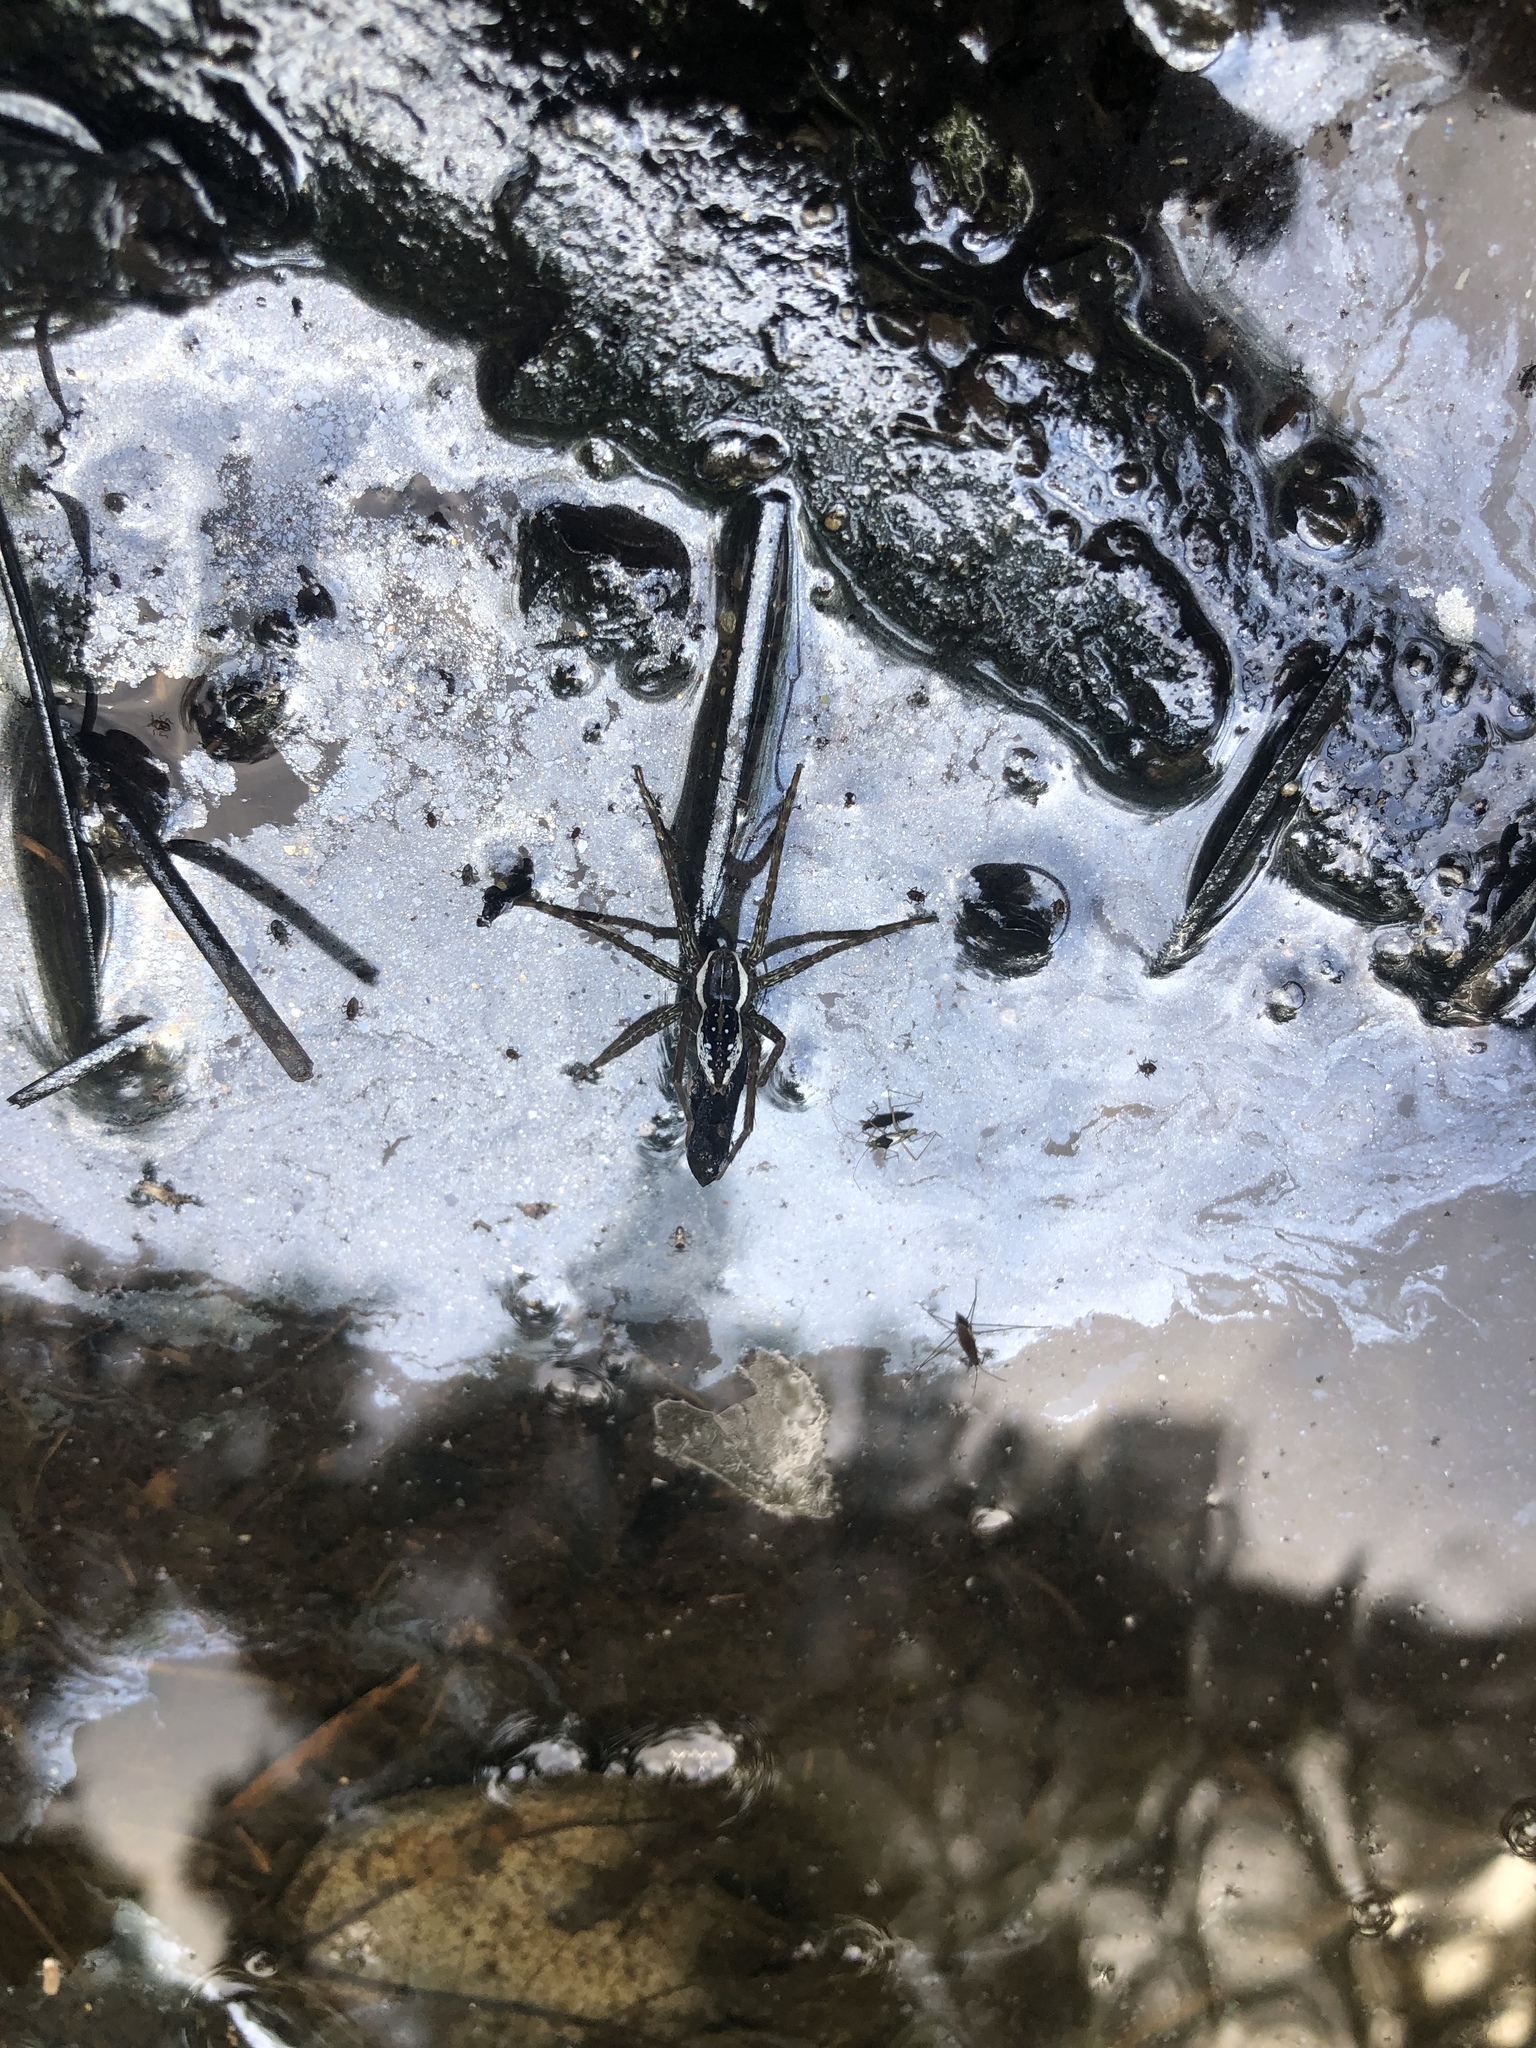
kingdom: Animalia
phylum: Arthropoda
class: Arachnida
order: Araneae
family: Pisauridae
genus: Dolomedes
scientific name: Dolomedes triton
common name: Six-spotted fishing spider
